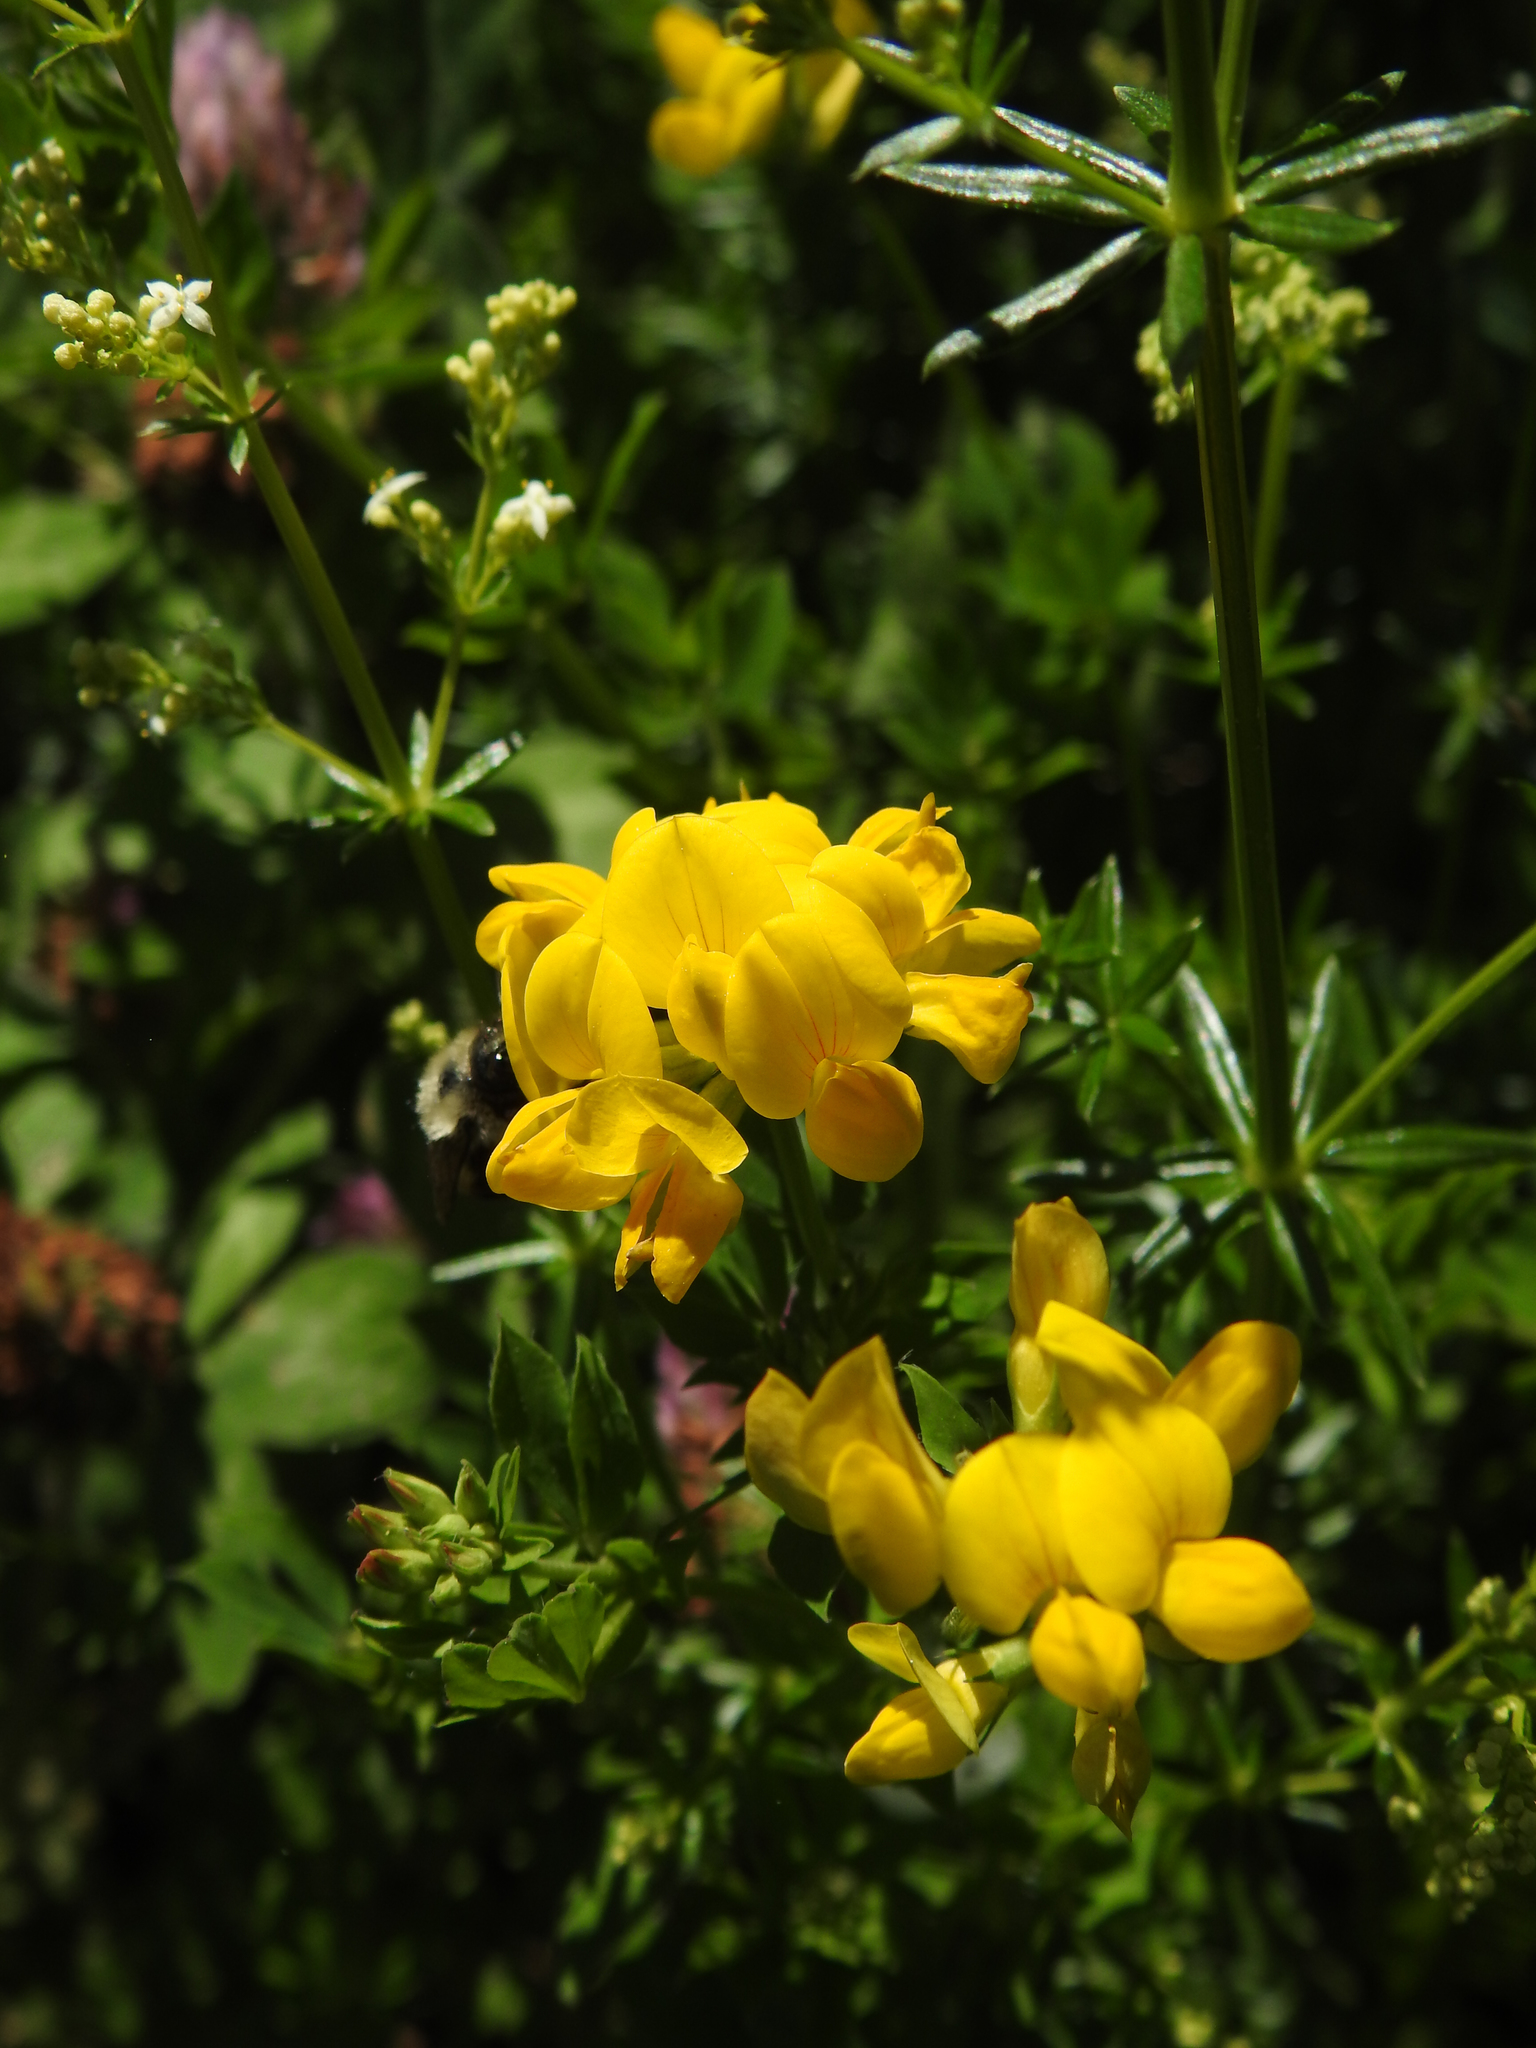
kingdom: Plantae
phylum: Tracheophyta
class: Magnoliopsida
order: Fabales
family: Fabaceae
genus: Lotus
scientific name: Lotus corniculatus
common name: Common bird's-foot-trefoil
